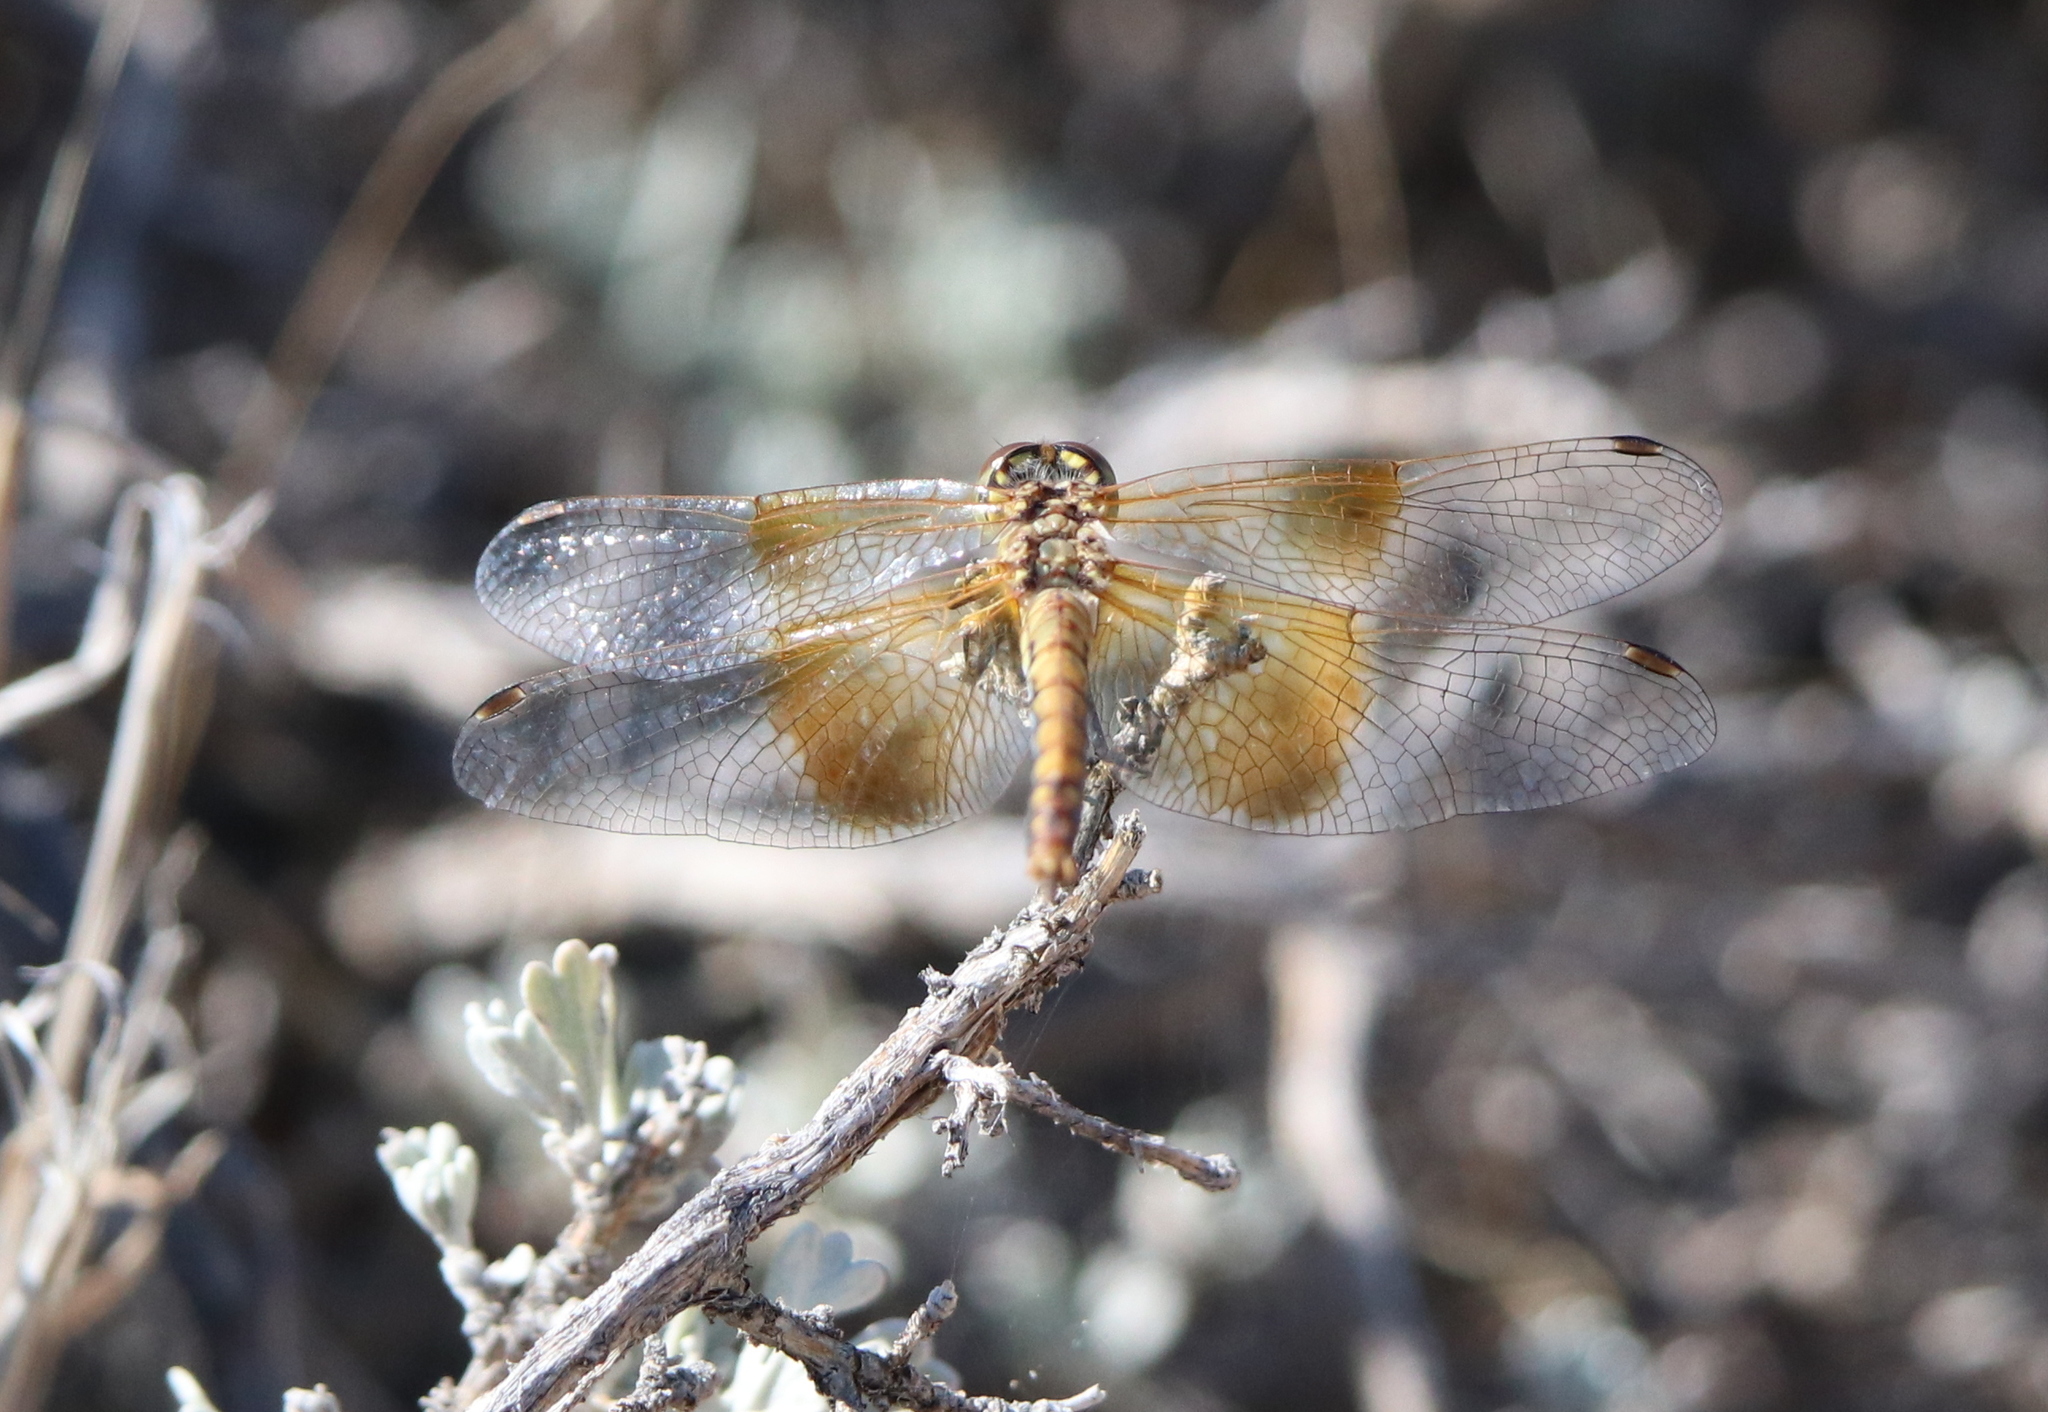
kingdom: Animalia
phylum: Arthropoda
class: Insecta
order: Odonata
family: Libellulidae
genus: Sympetrum
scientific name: Sympetrum semicinctum
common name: Band-winged meadowhawk
